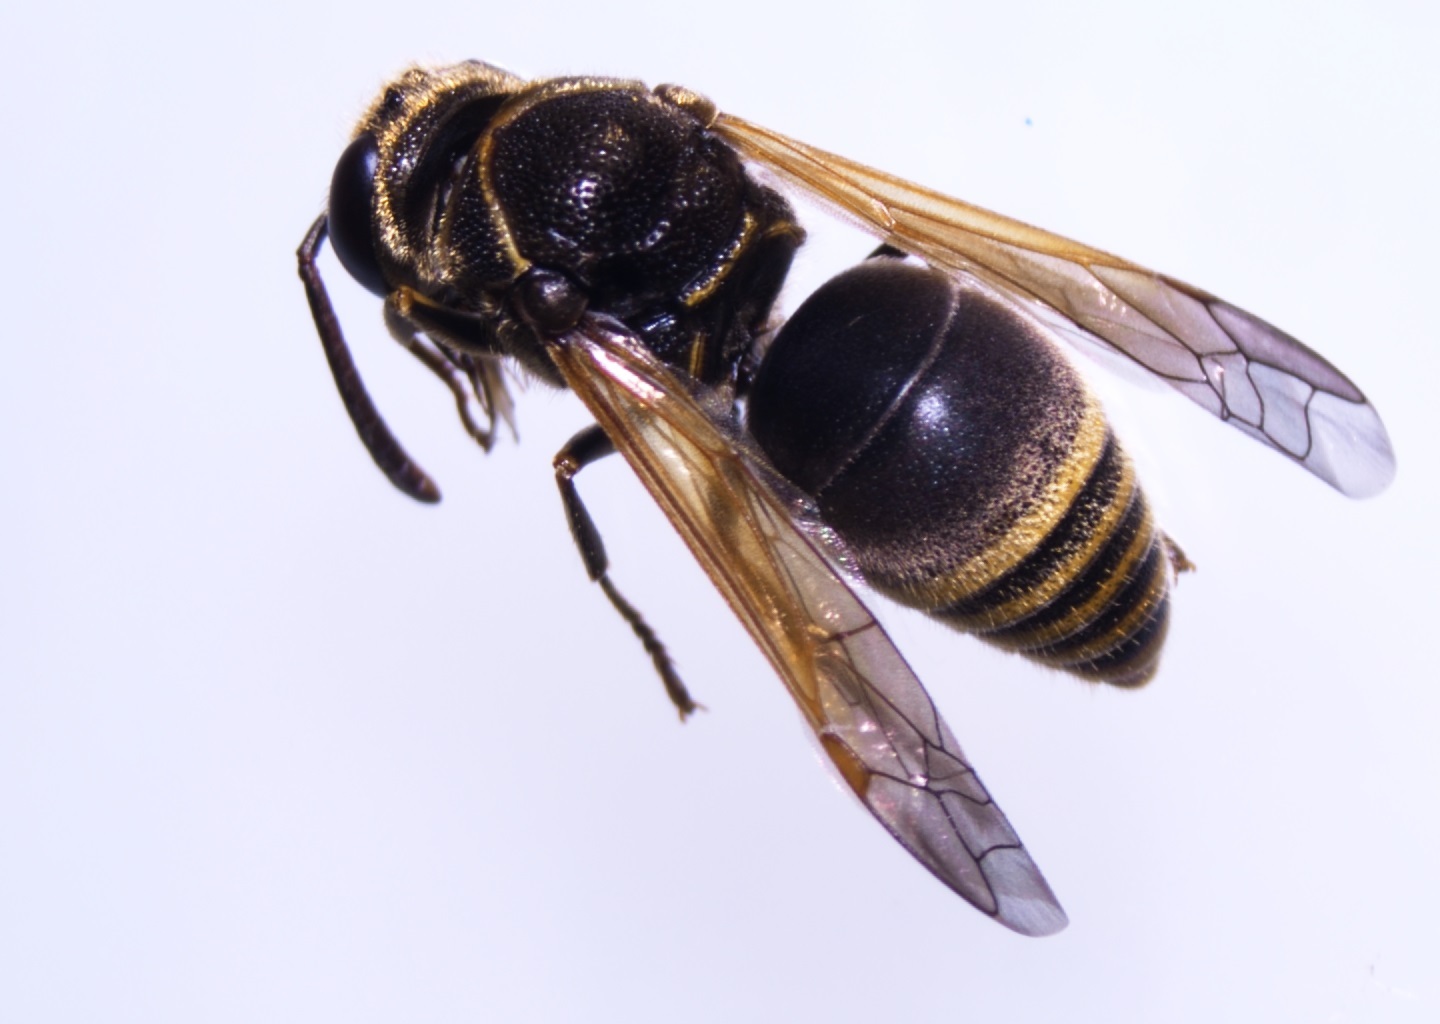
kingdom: Animalia
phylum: Arthropoda
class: Insecta
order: Hymenoptera
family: Eumenidae
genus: Pachodynerus
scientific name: Pachodynerus nasidens
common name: Key hole wasp
